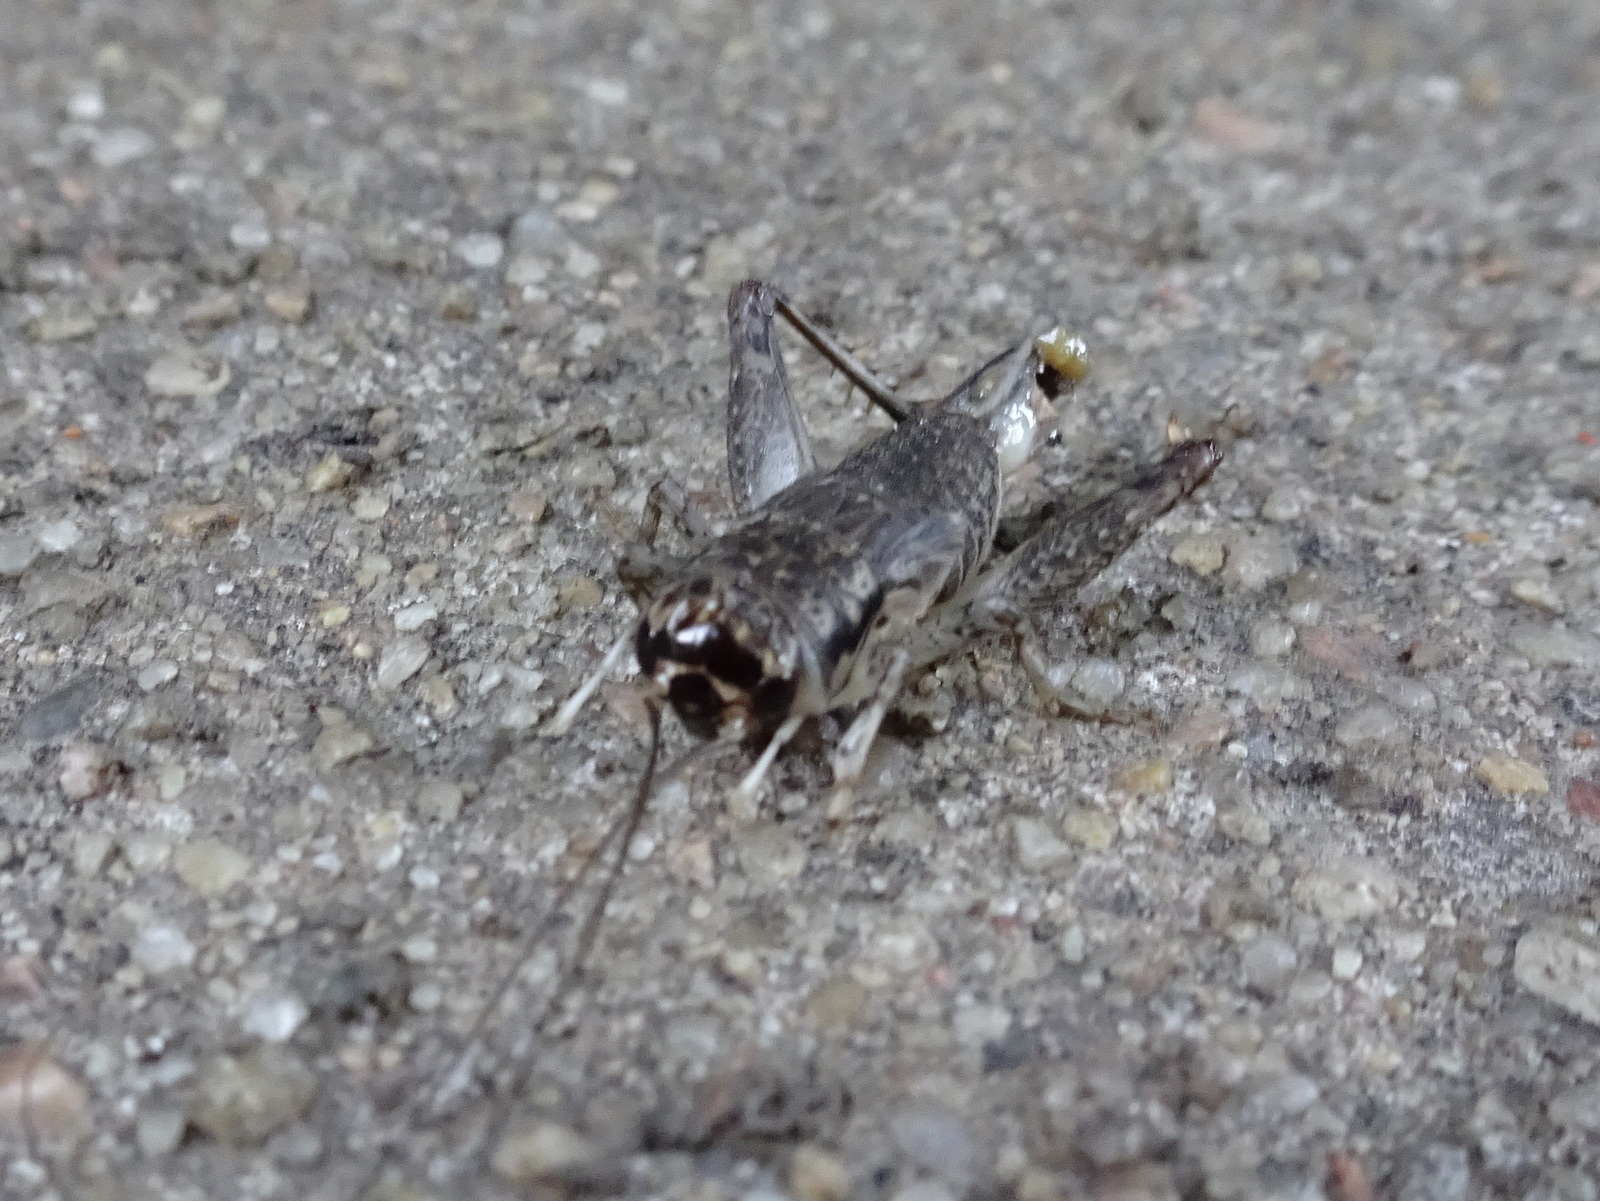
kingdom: Animalia
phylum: Arthropoda
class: Insecta
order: Orthoptera
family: Gryllidae
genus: Velarifictorus
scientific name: Velarifictorus micado
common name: Japanese burrowing cricket
